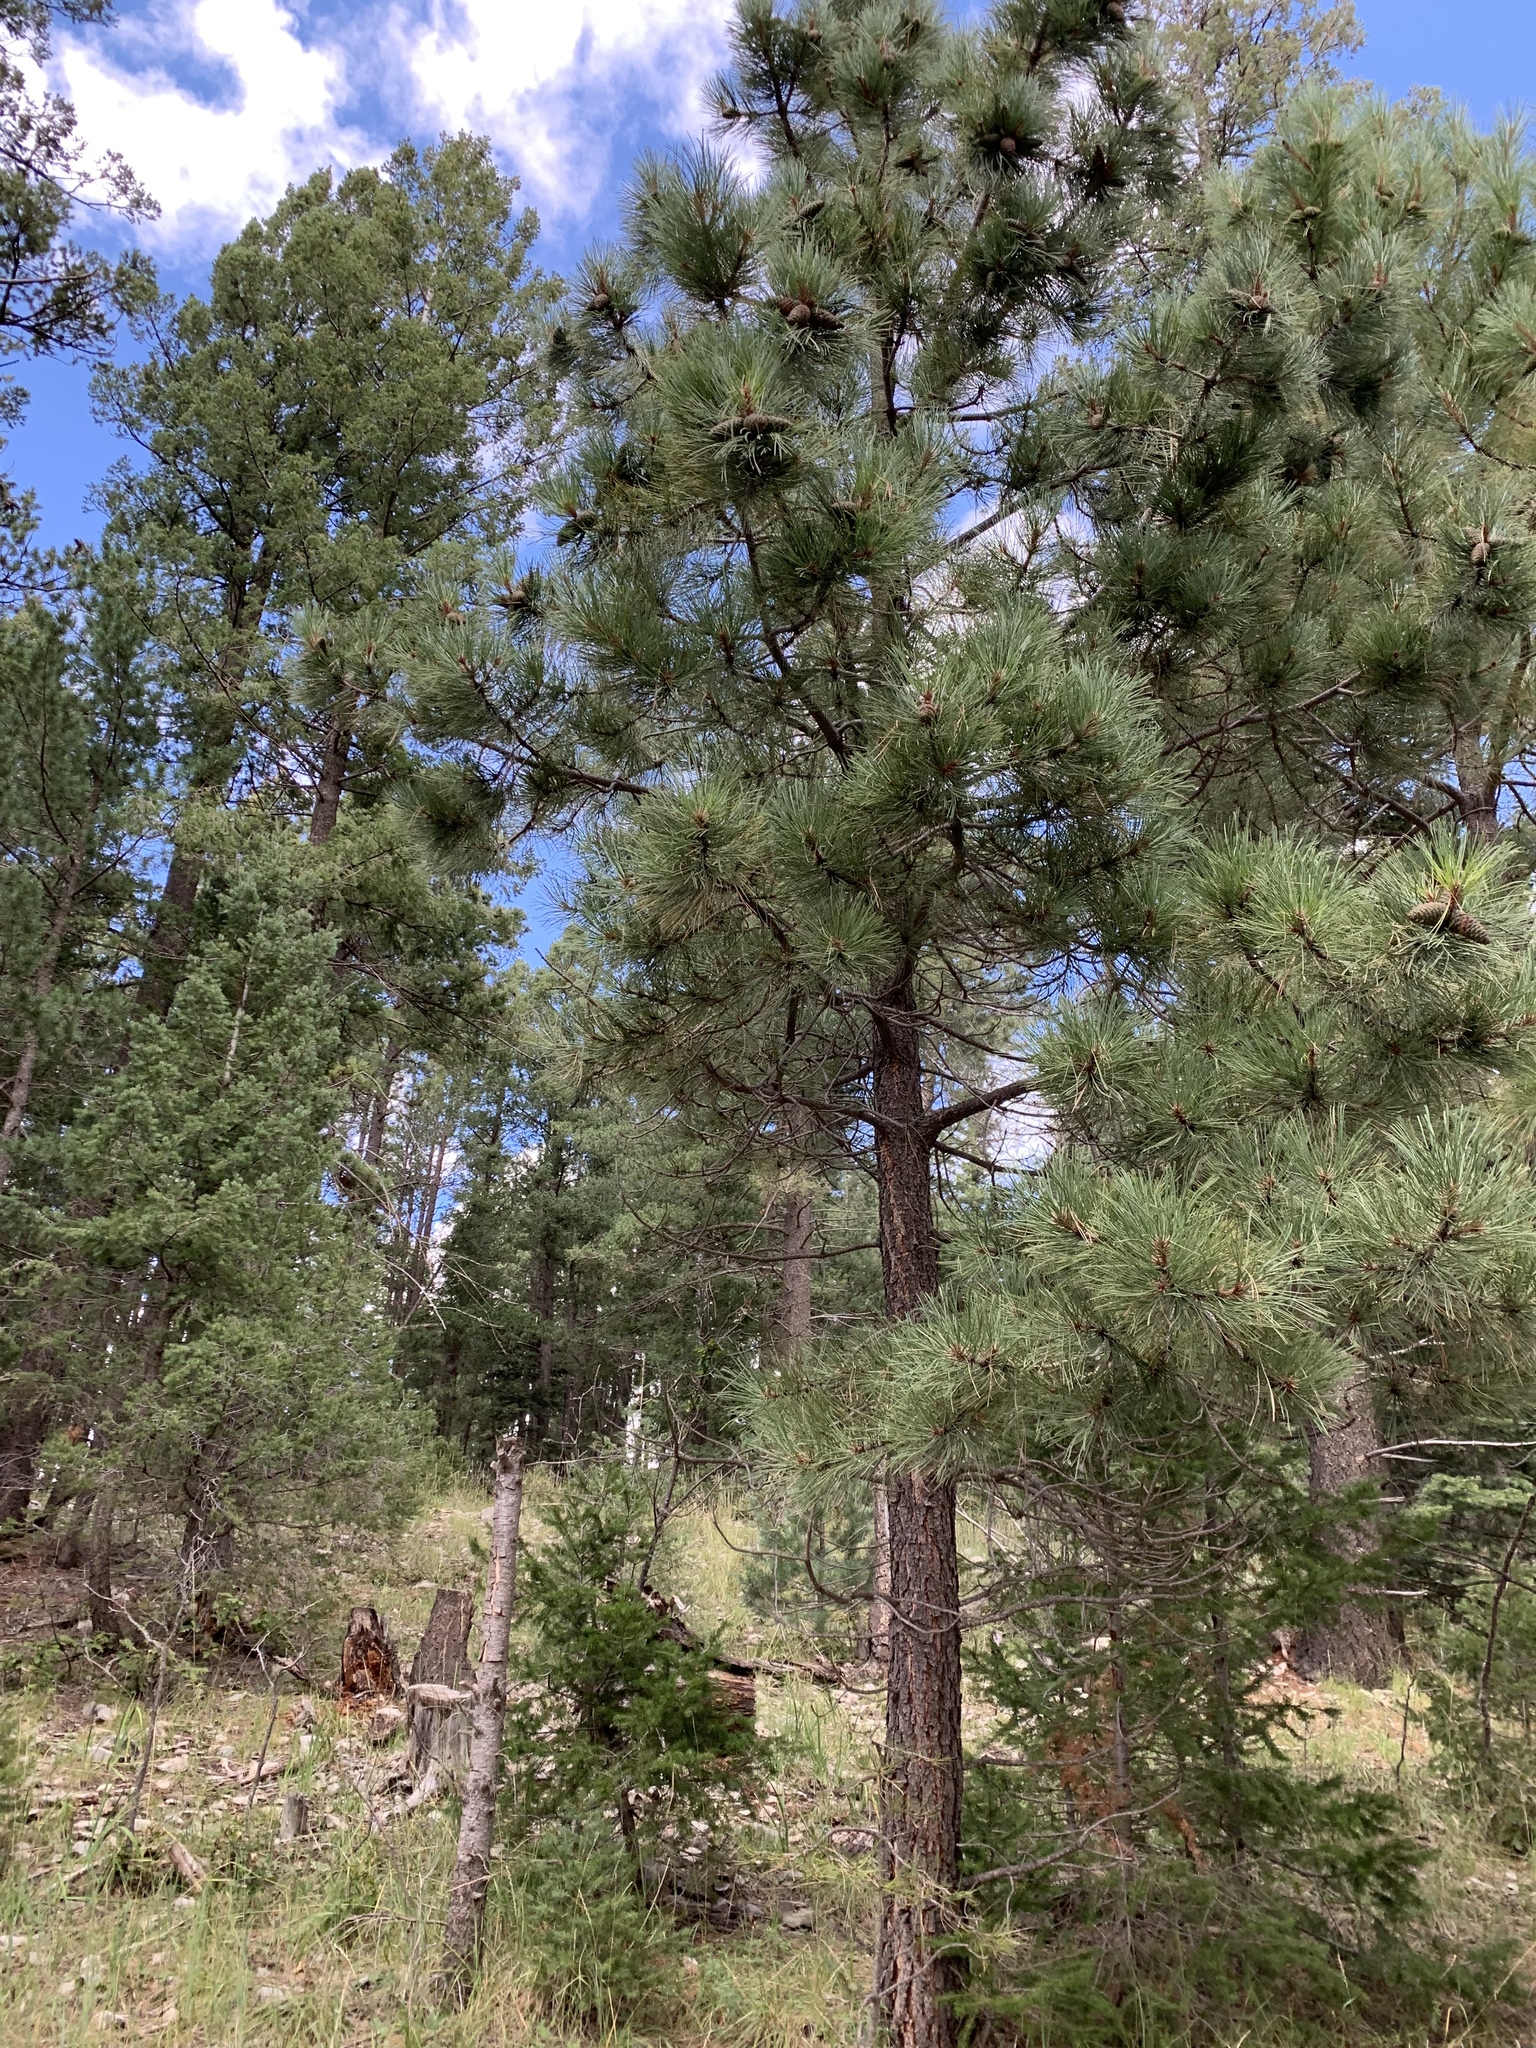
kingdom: Plantae
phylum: Tracheophyta
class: Pinopsida
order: Pinales
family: Pinaceae
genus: Pinus
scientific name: Pinus ponderosa
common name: Western yellow-pine
